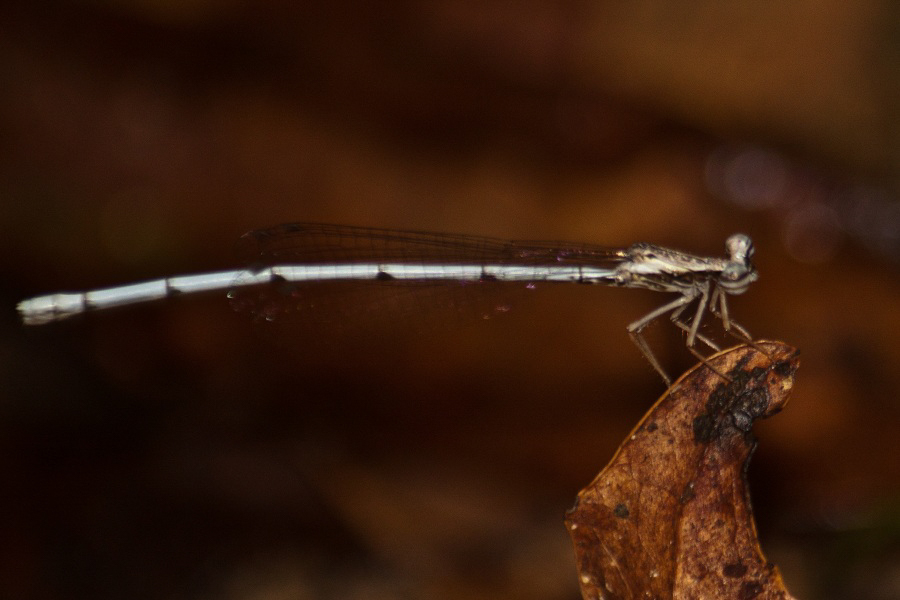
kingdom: Animalia
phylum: Arthropoda
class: Insecta
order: Odonata
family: Platycnemididae
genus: Copera
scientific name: Copera vittata
